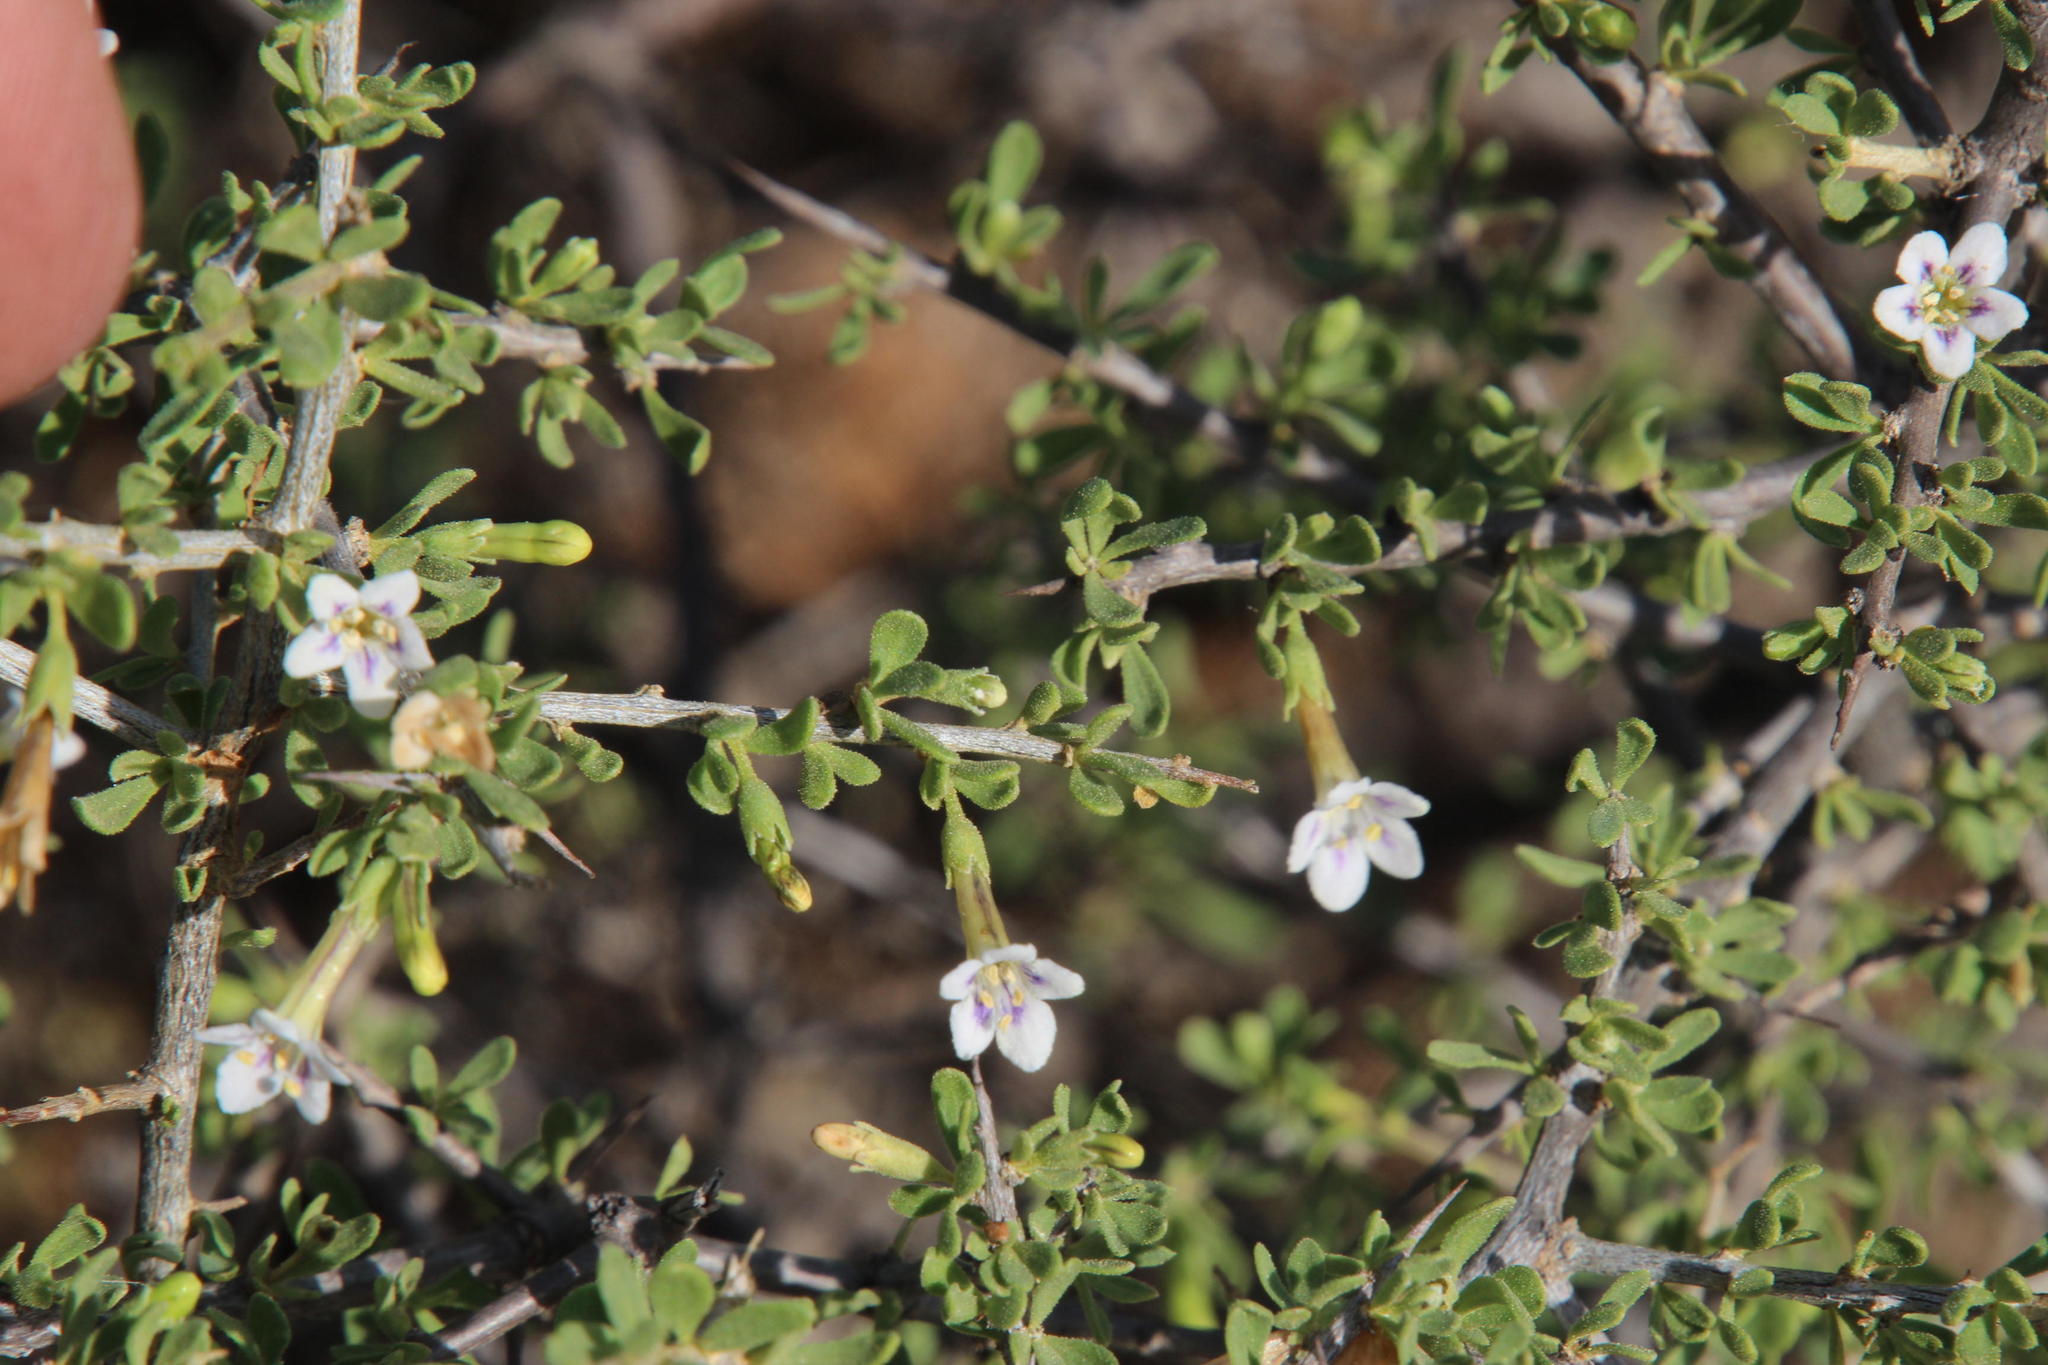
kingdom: Plantae
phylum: Tracheophyta
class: Magnoliopsida
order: Solanales
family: Solanaceae
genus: Lycium
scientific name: Lycium horridum
